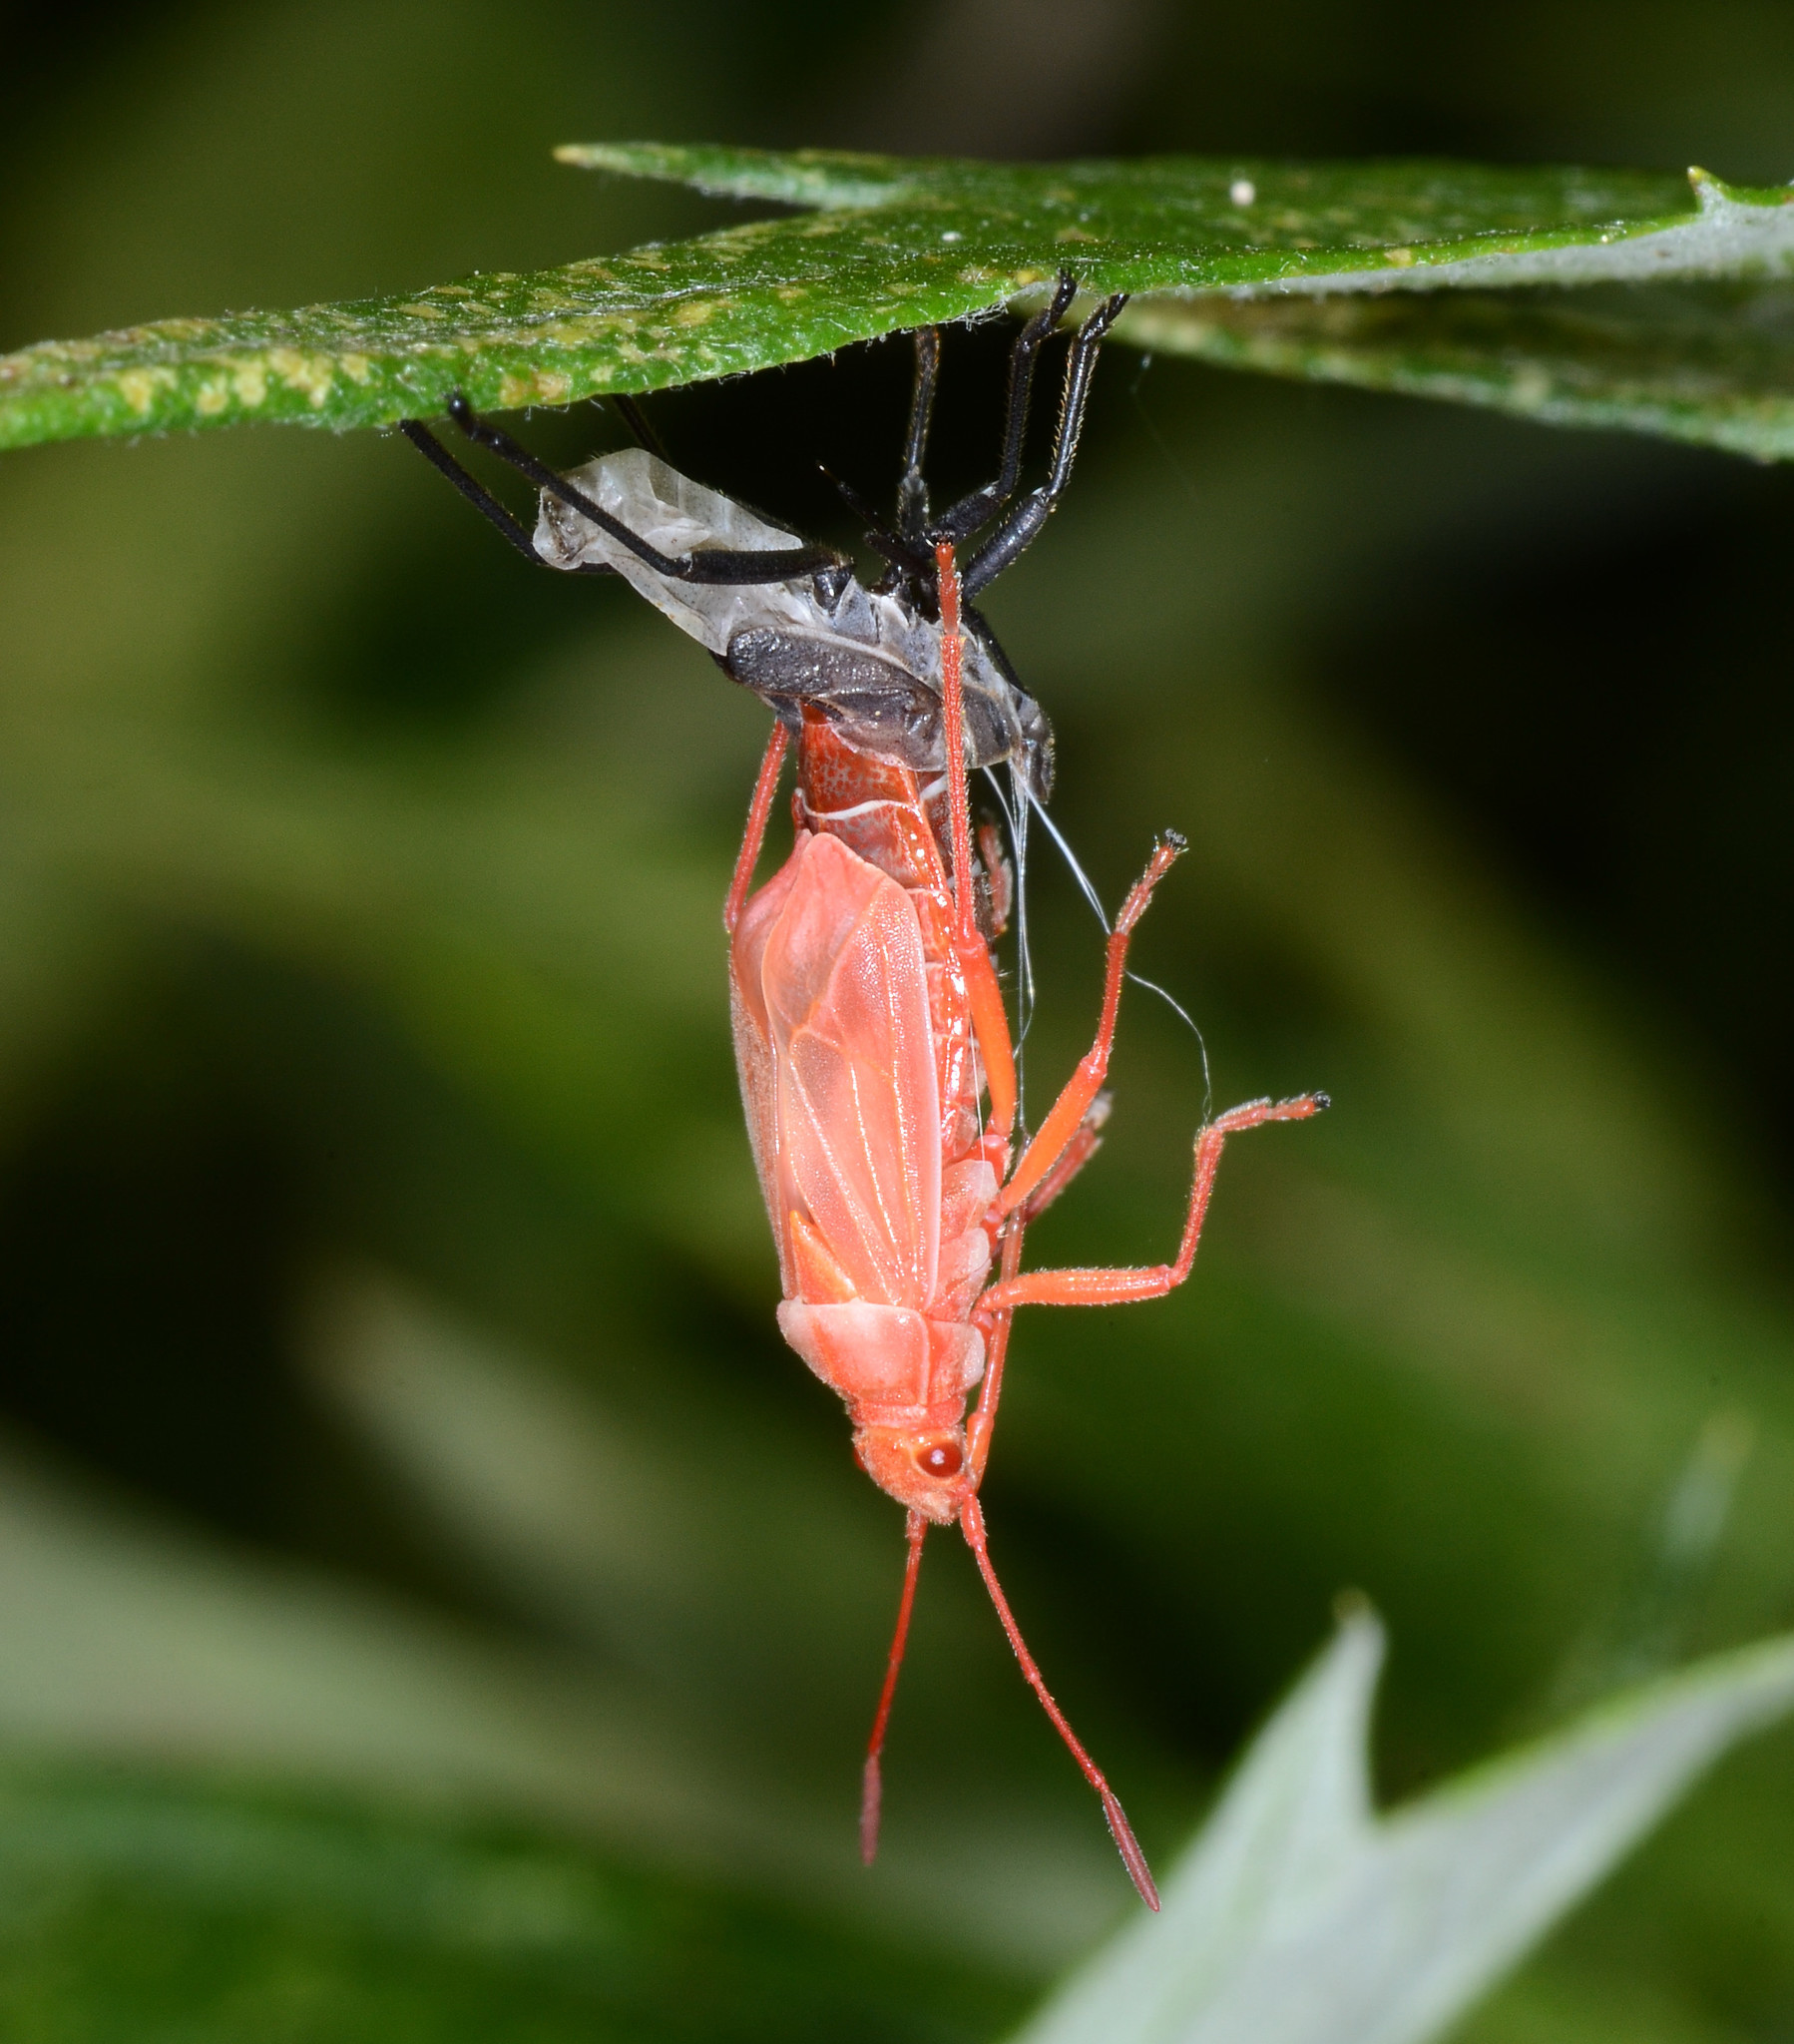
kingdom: Animalia
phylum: Arthropoda
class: Insecta
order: Hemiptera
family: Rhopalidae
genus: Boisea
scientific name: Boisea rubrolineata
